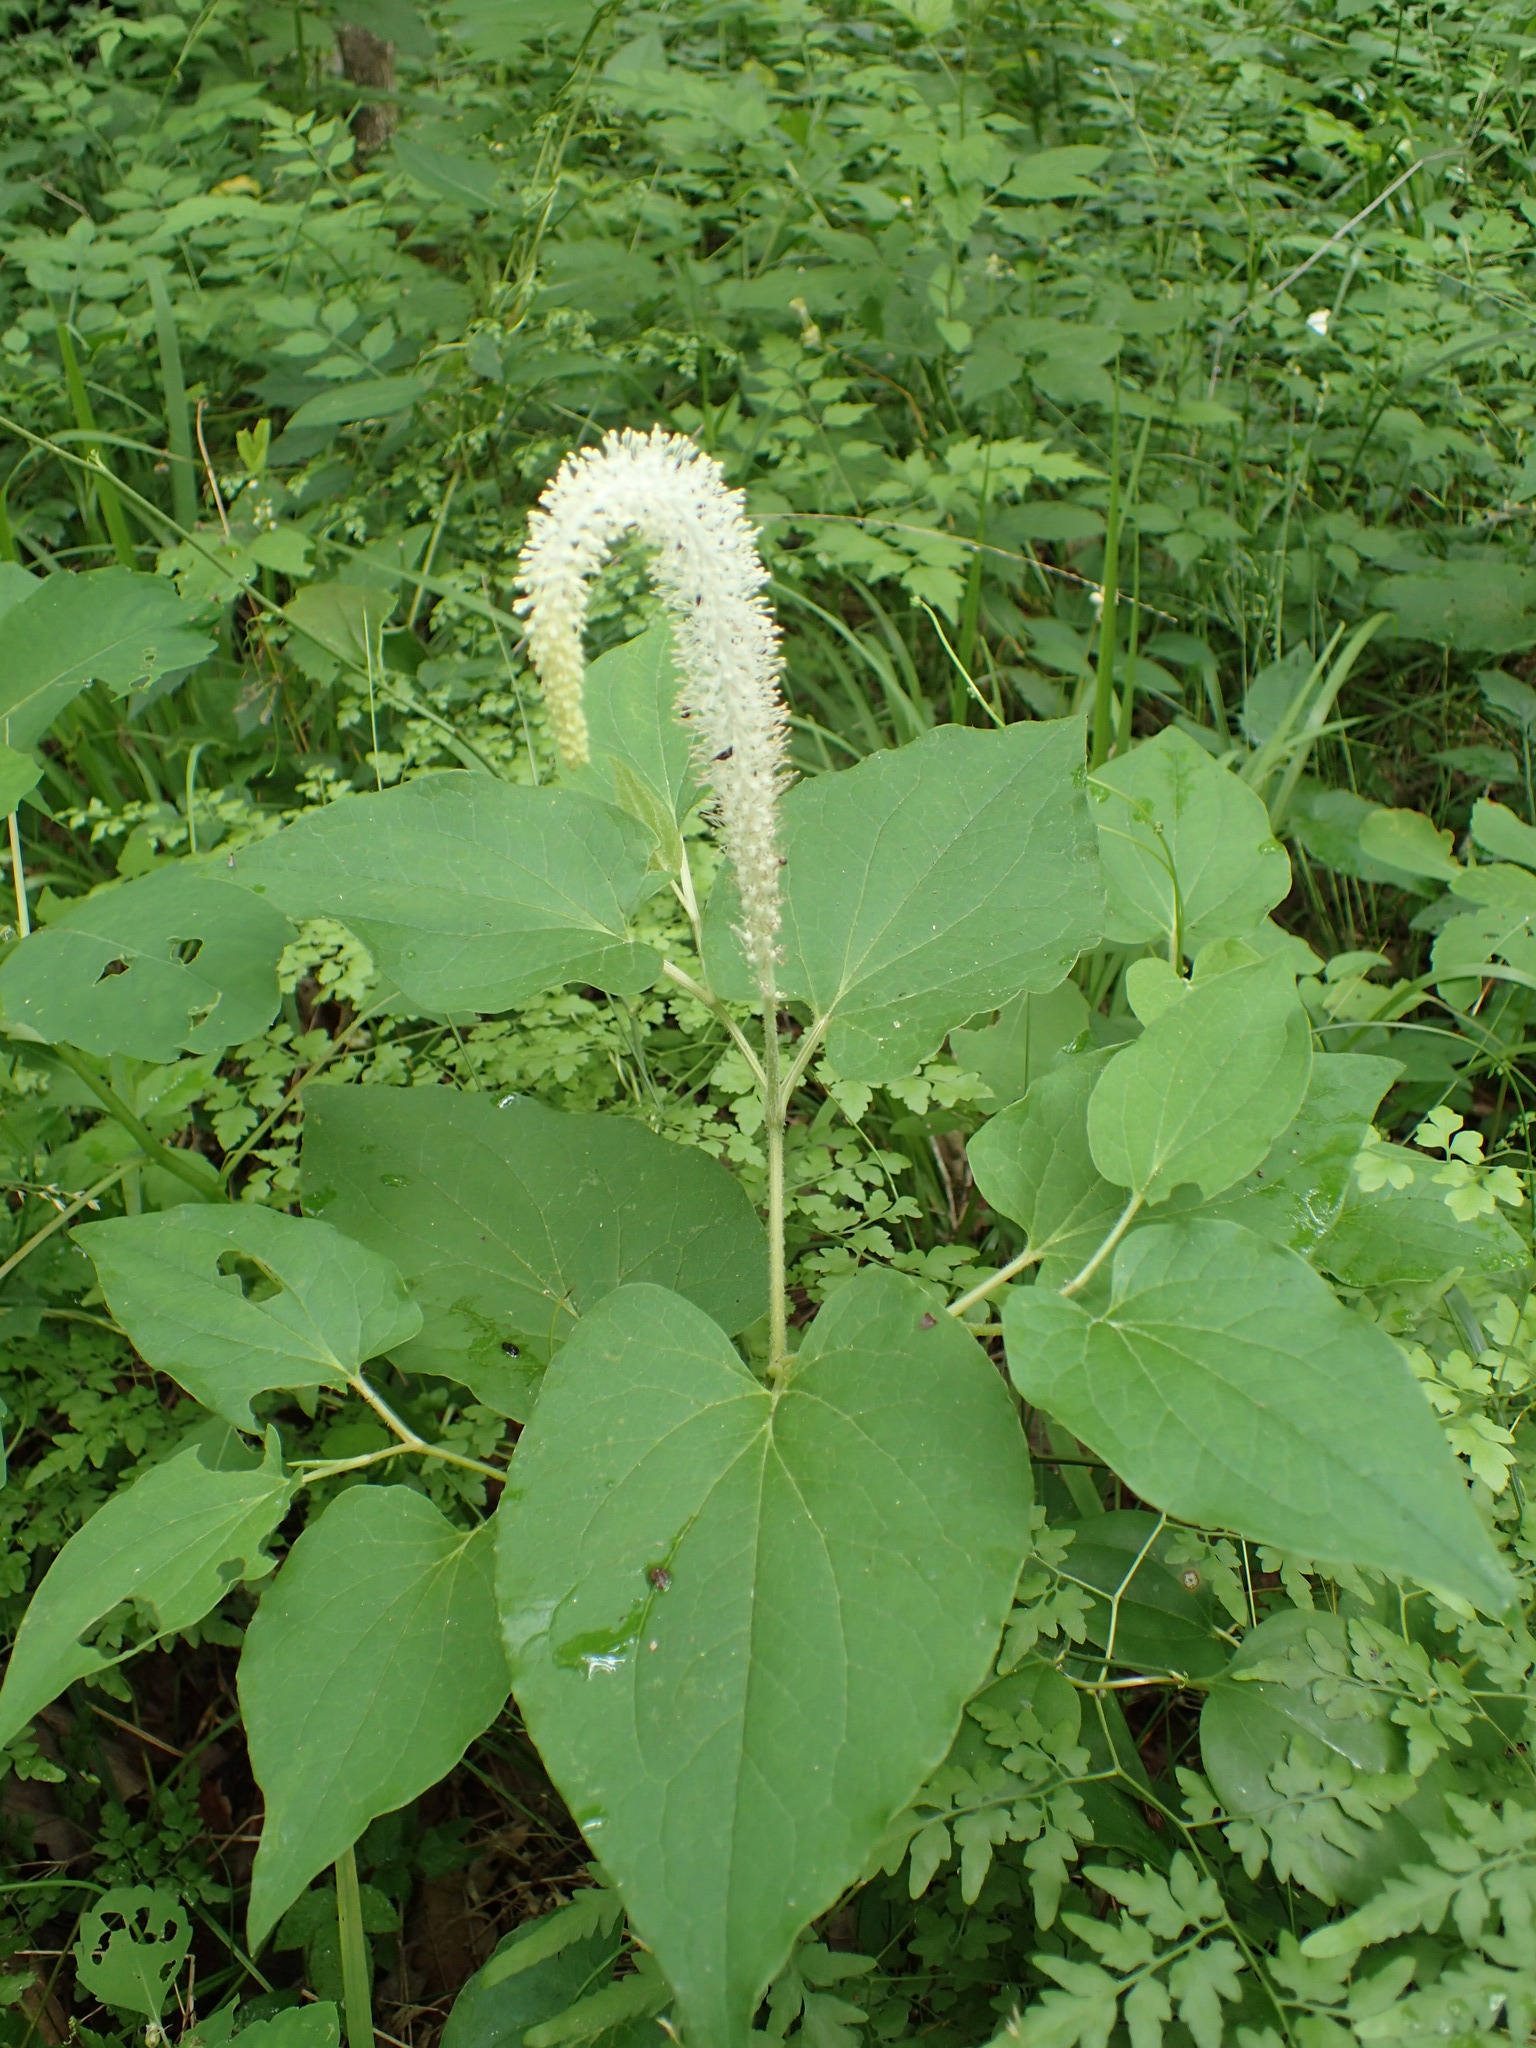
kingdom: Plantae
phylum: Tracheophyta
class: Magnoliopsida
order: Piperales
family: Saururaceae
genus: Saururus
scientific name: Saururus cernuus
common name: Lizard's-tail
